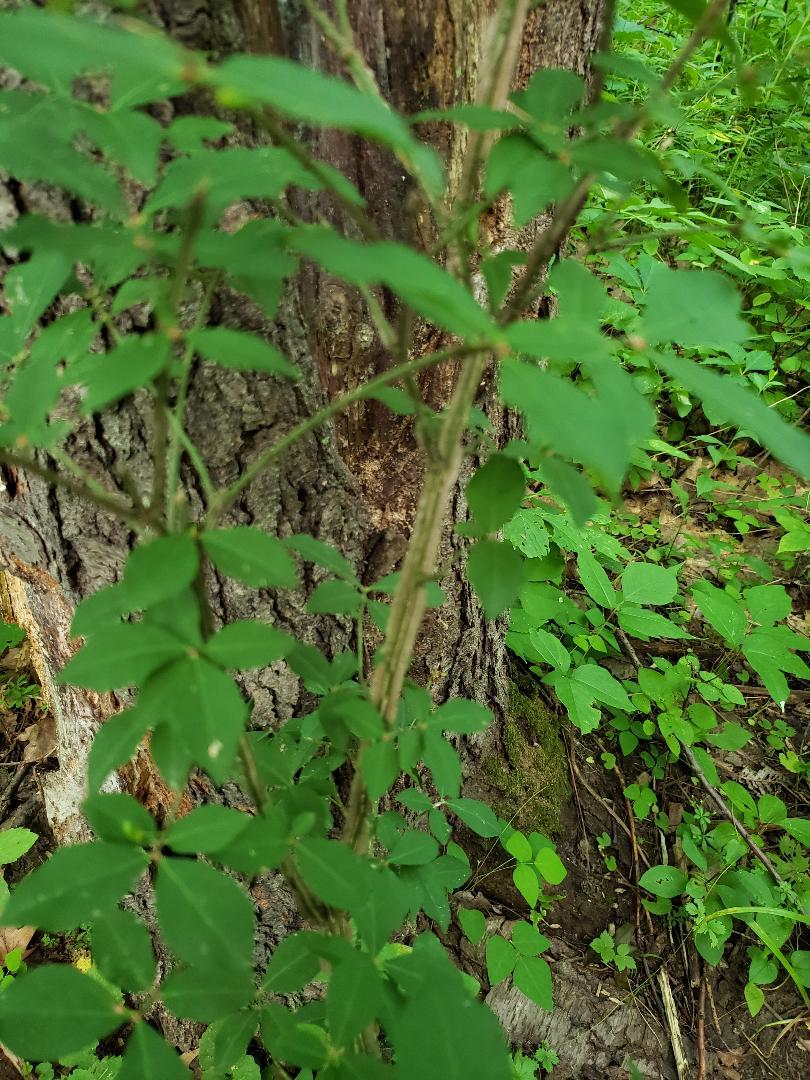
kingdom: Plantae
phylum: Tracheophyta
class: Magnoliopsida
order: Celastrales
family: Celastraceae
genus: Euonymus
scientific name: Euonymus alatus
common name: Winged euonymus
